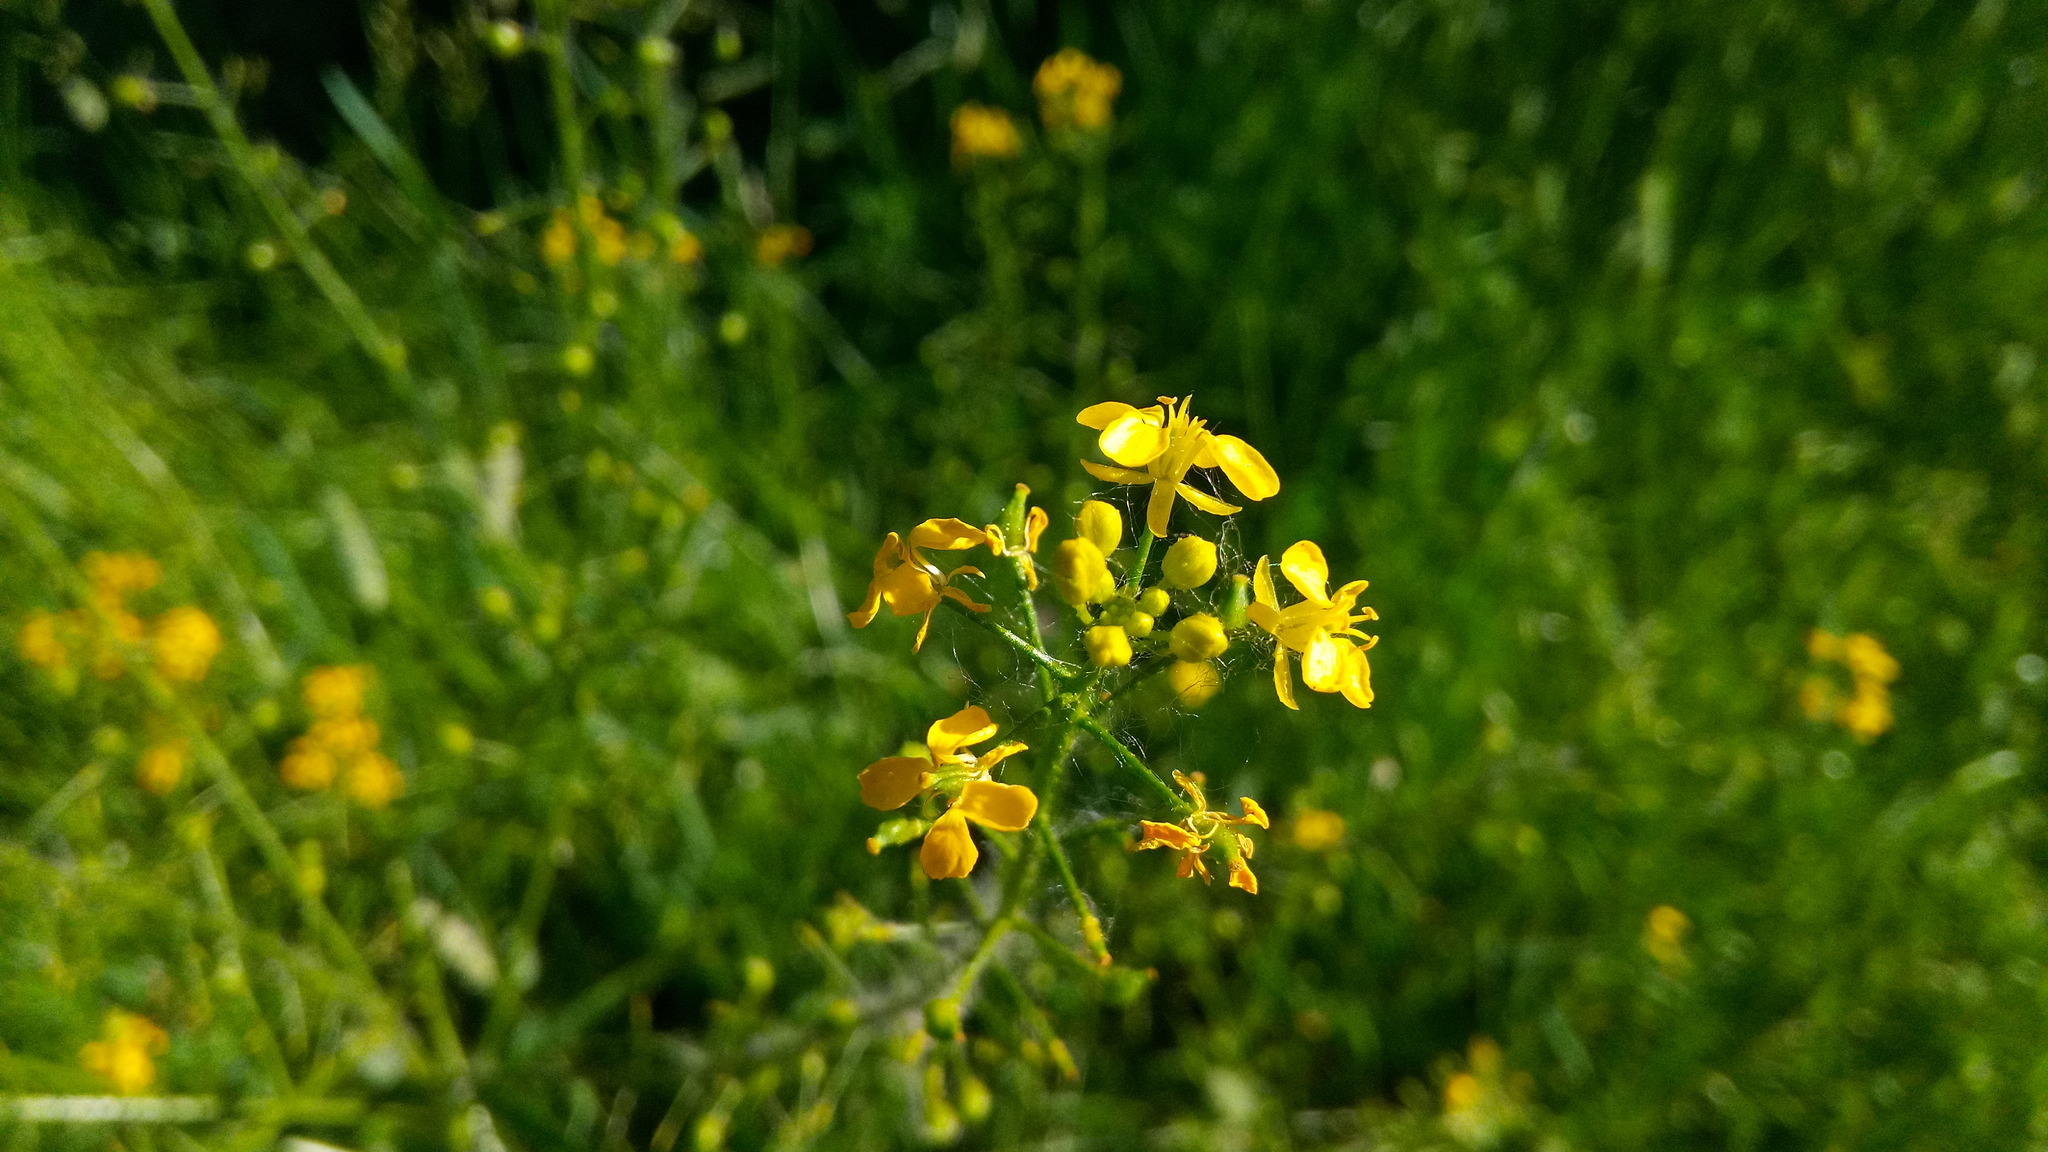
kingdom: Plantae
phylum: Tracheophyta
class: Magnoliopsida
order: Brassicales
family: Brassicaceae
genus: Bunias
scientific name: Bunias orientalis
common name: Warty-cabbage
